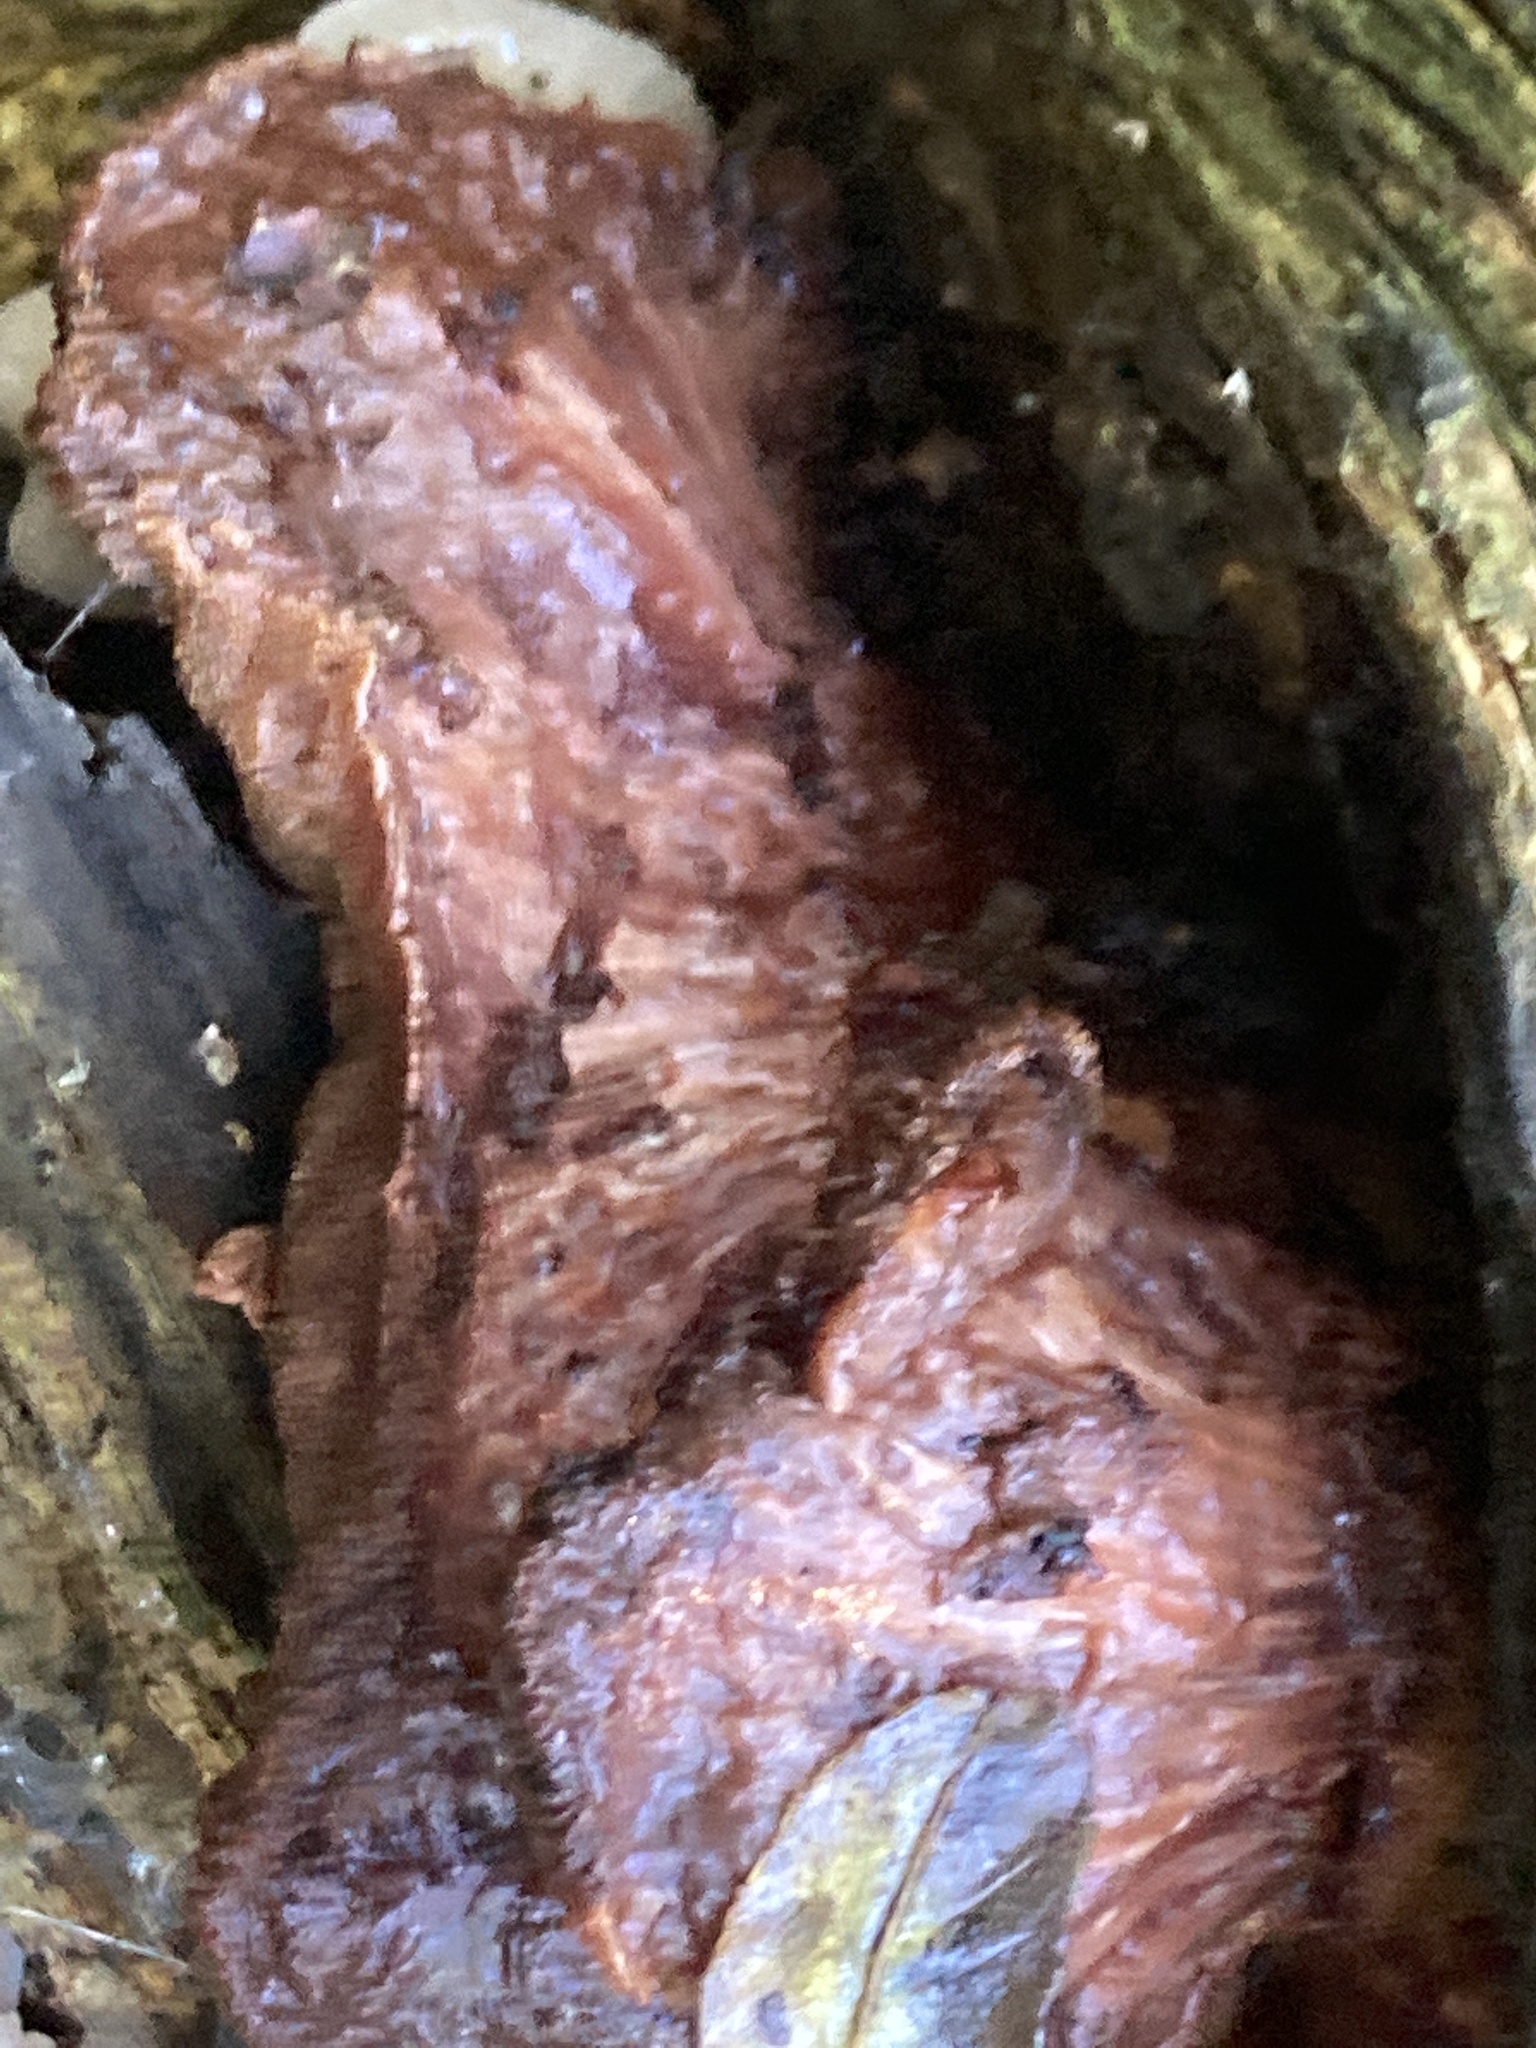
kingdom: Fungi
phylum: Basidiomycota
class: Agaricomycetes
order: Agaricales
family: Fistulinaceae
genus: Fistulina
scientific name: Fistulina hepatica
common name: Beef-steak fungus
